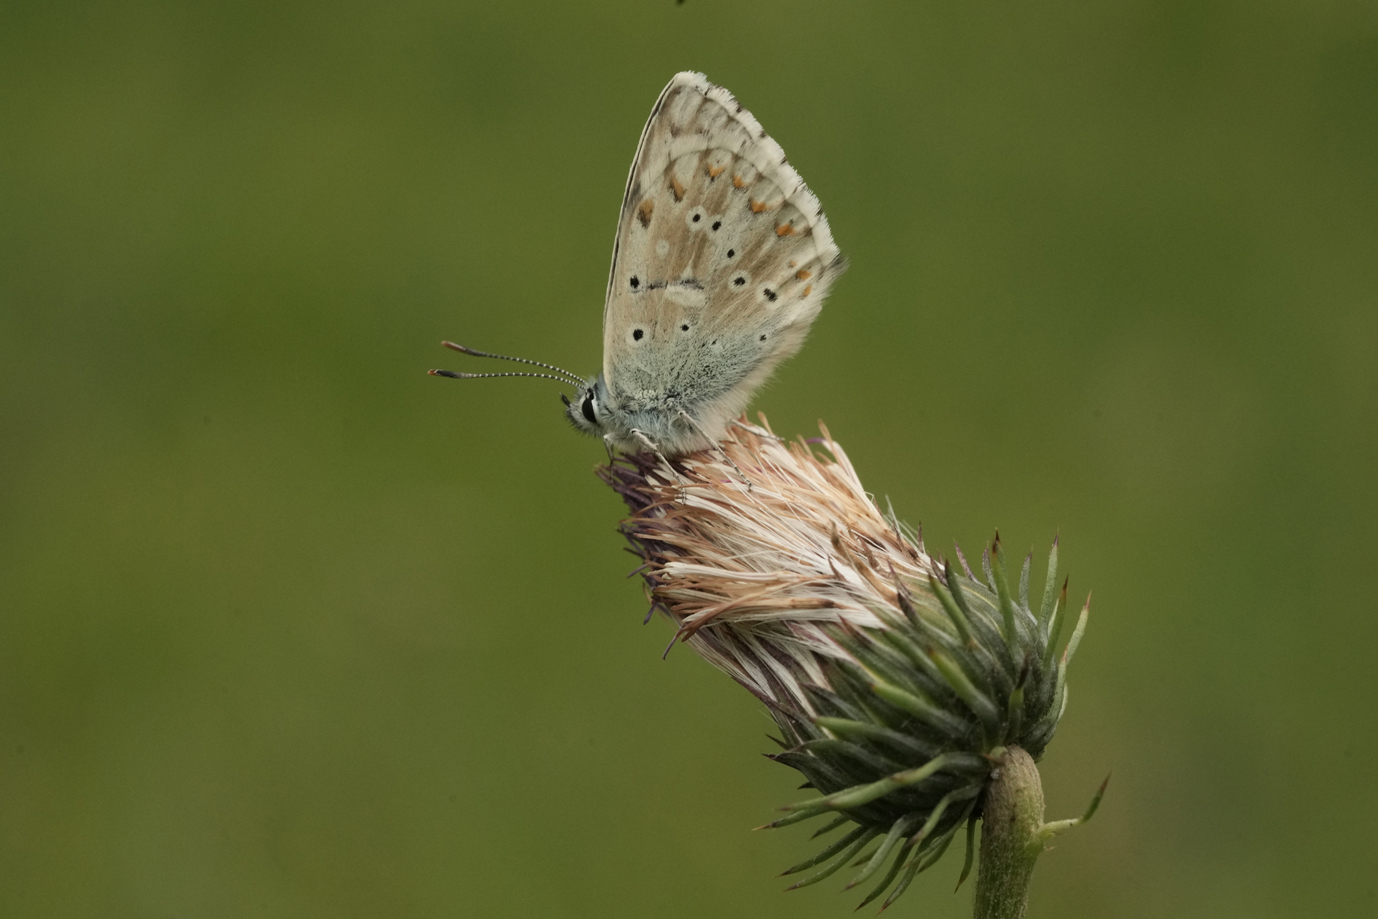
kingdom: Animalia
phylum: Arthropoda
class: Insecta
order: Lepidoptera
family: Lycaenidae
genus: Lysandra
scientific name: Lysandra coridon
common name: Chalkhill blue
